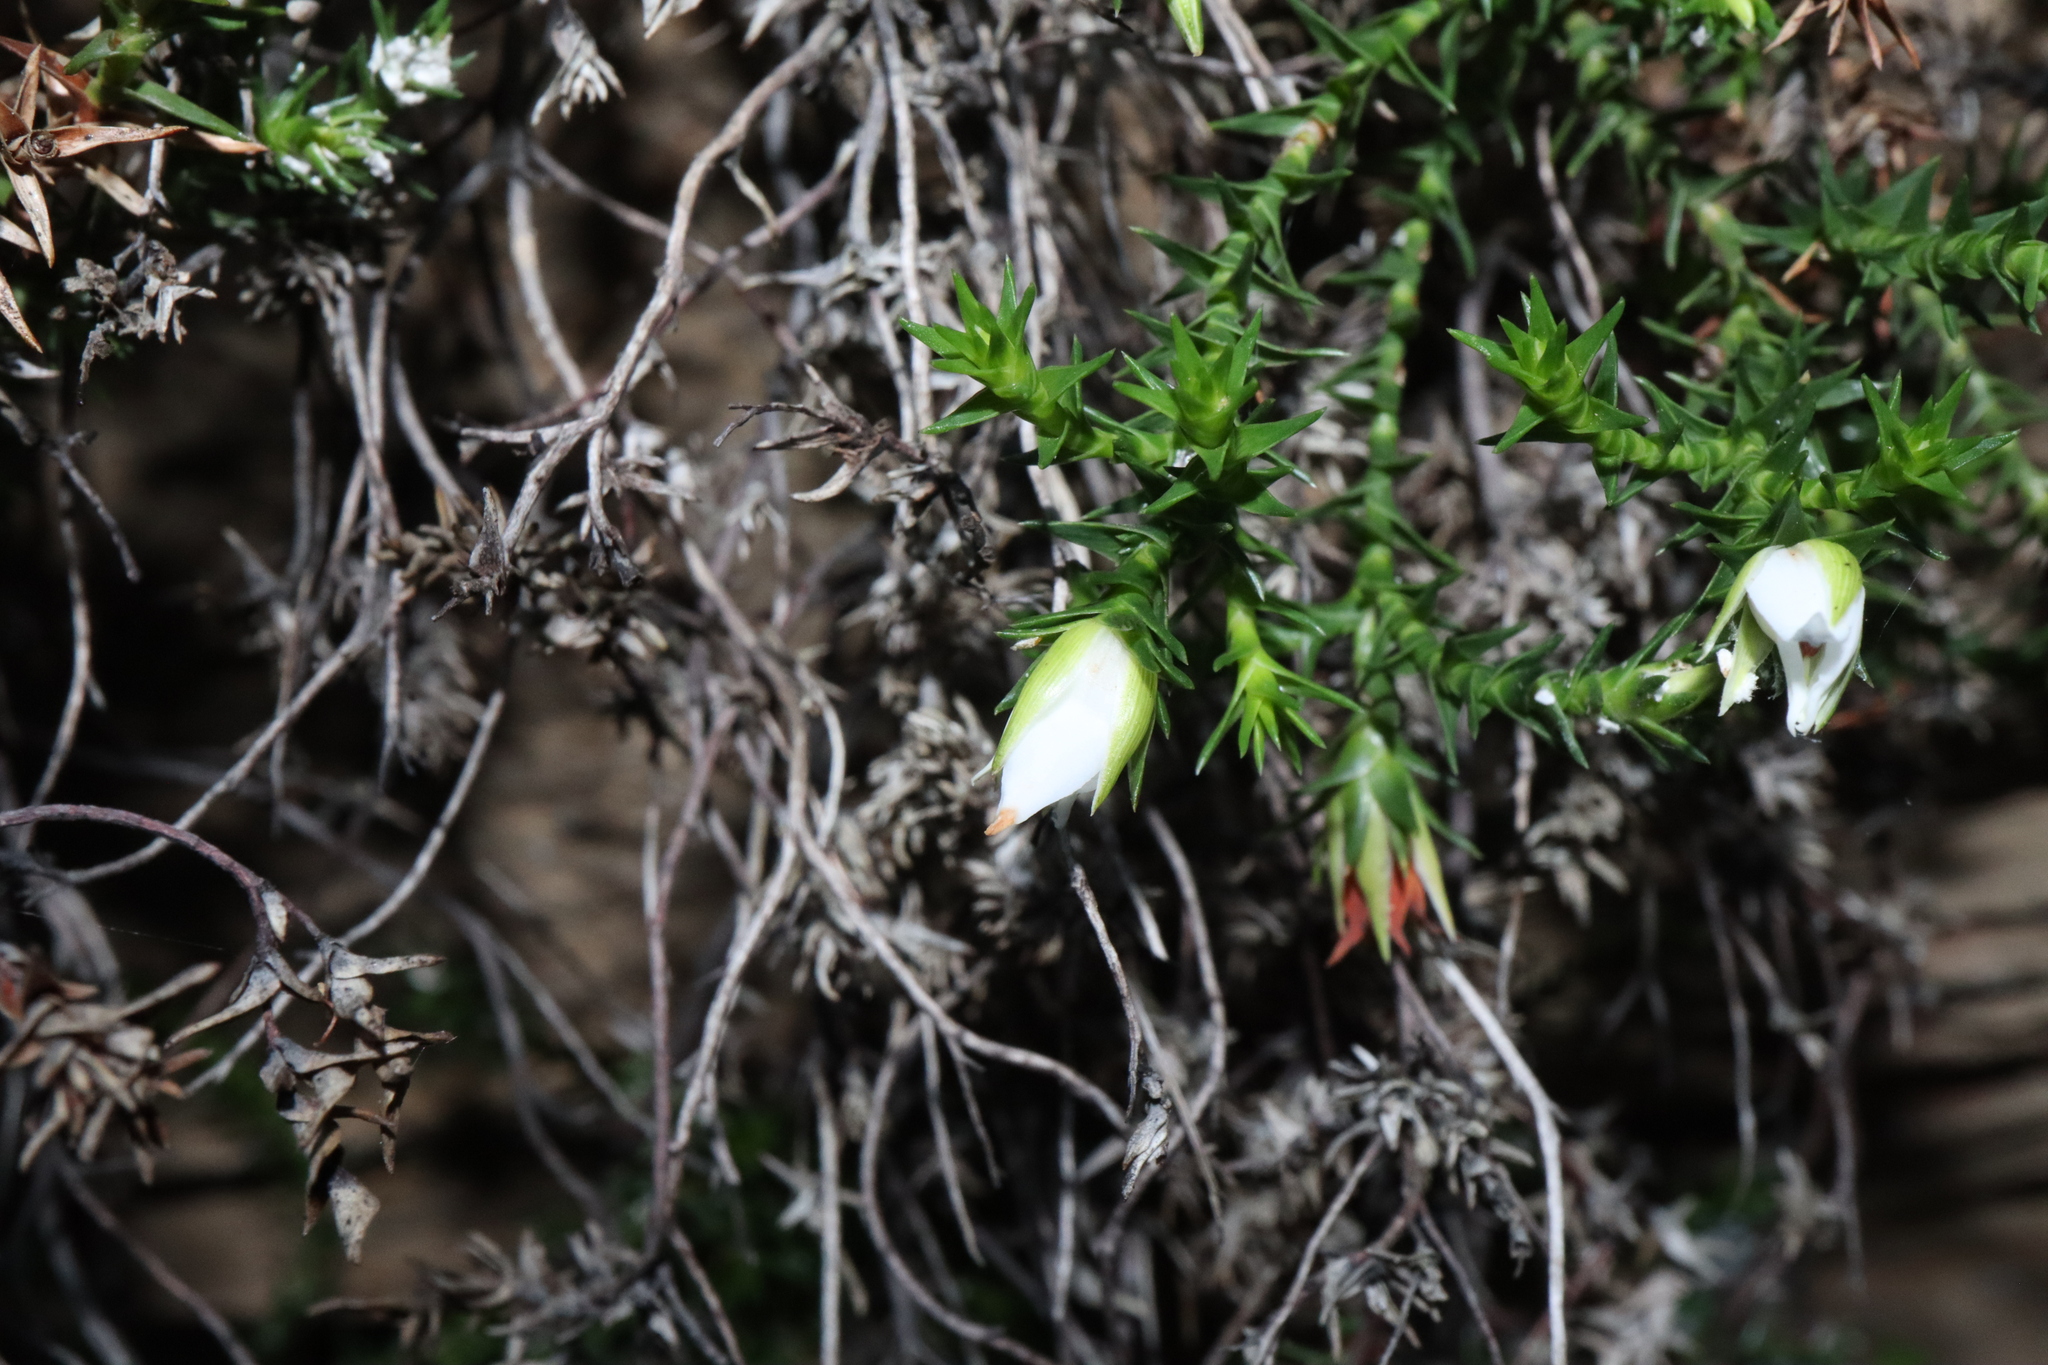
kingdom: Plantae
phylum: Tracheophyta
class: Magnoliopsida
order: Ericales
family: Ericaceae
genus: Sprengelia
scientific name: Sprengelia monticola
